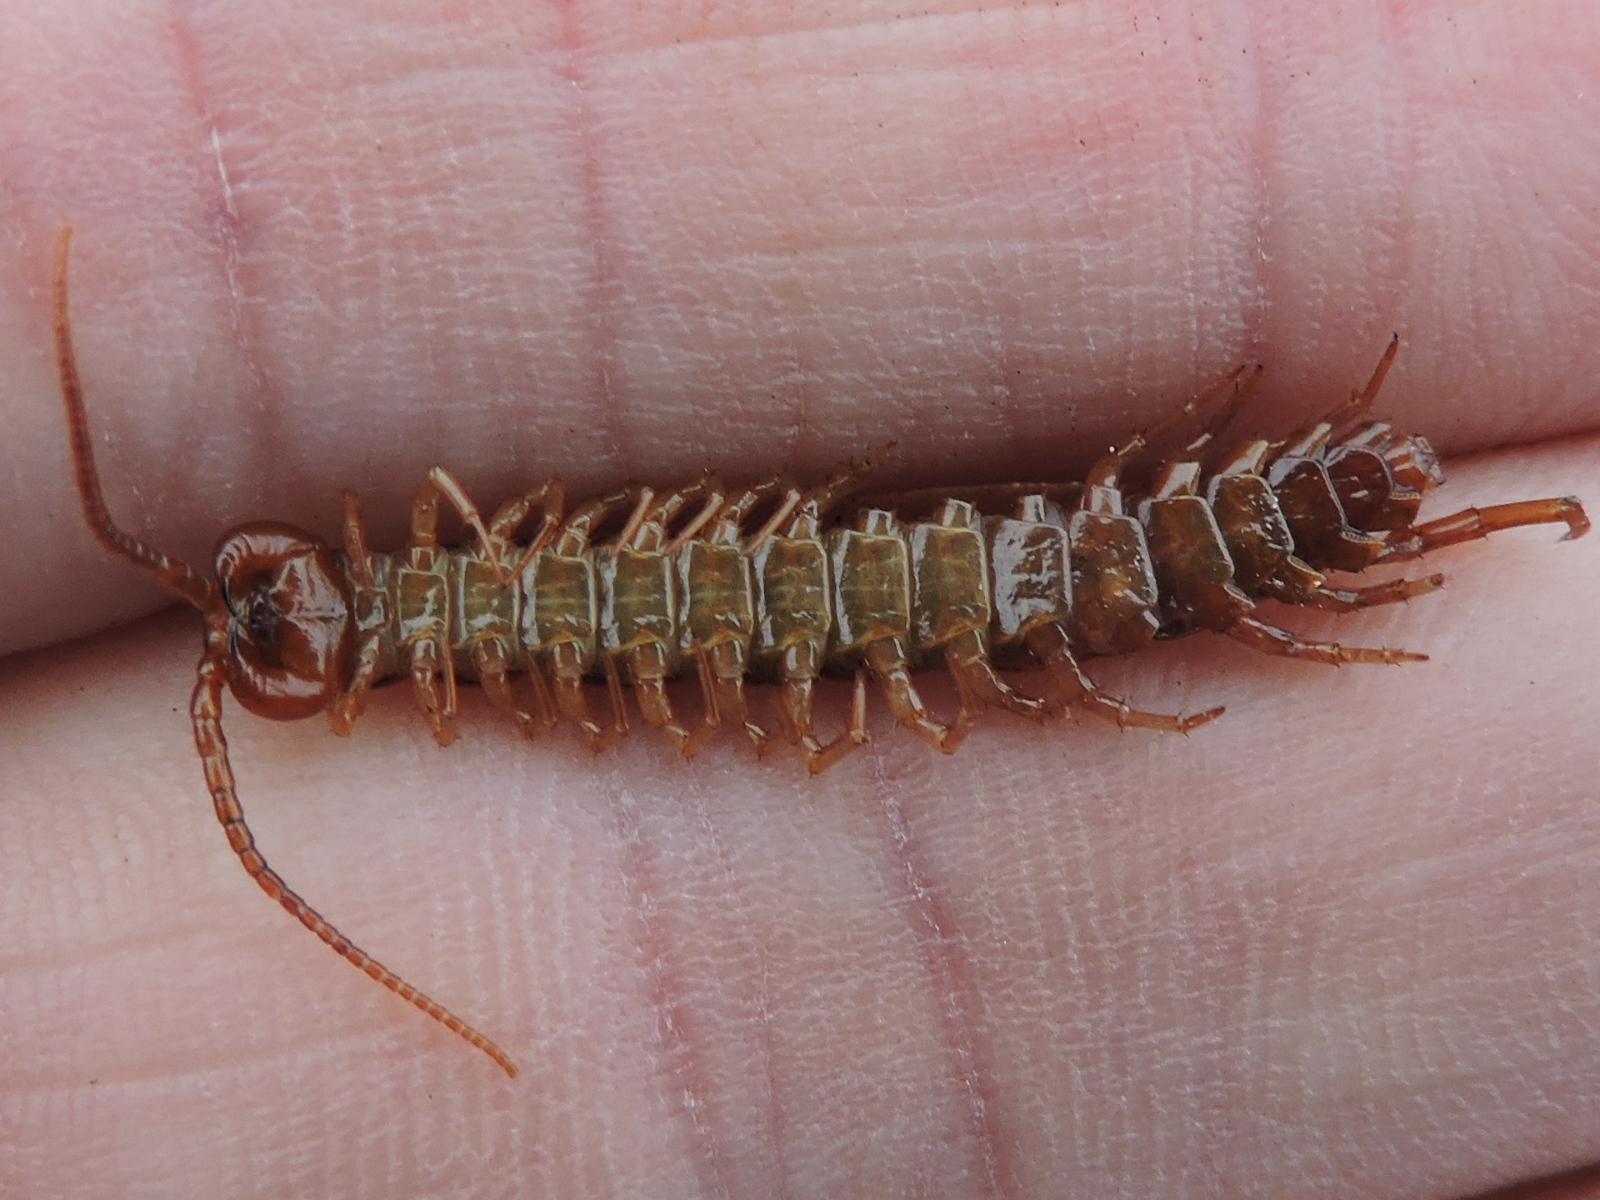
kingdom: Animalia
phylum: Arthropoda
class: Chilopoda
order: Lithobiomorpha
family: Lithobiidae
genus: Lithobius
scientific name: Lithobius forficatus
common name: Centipede
